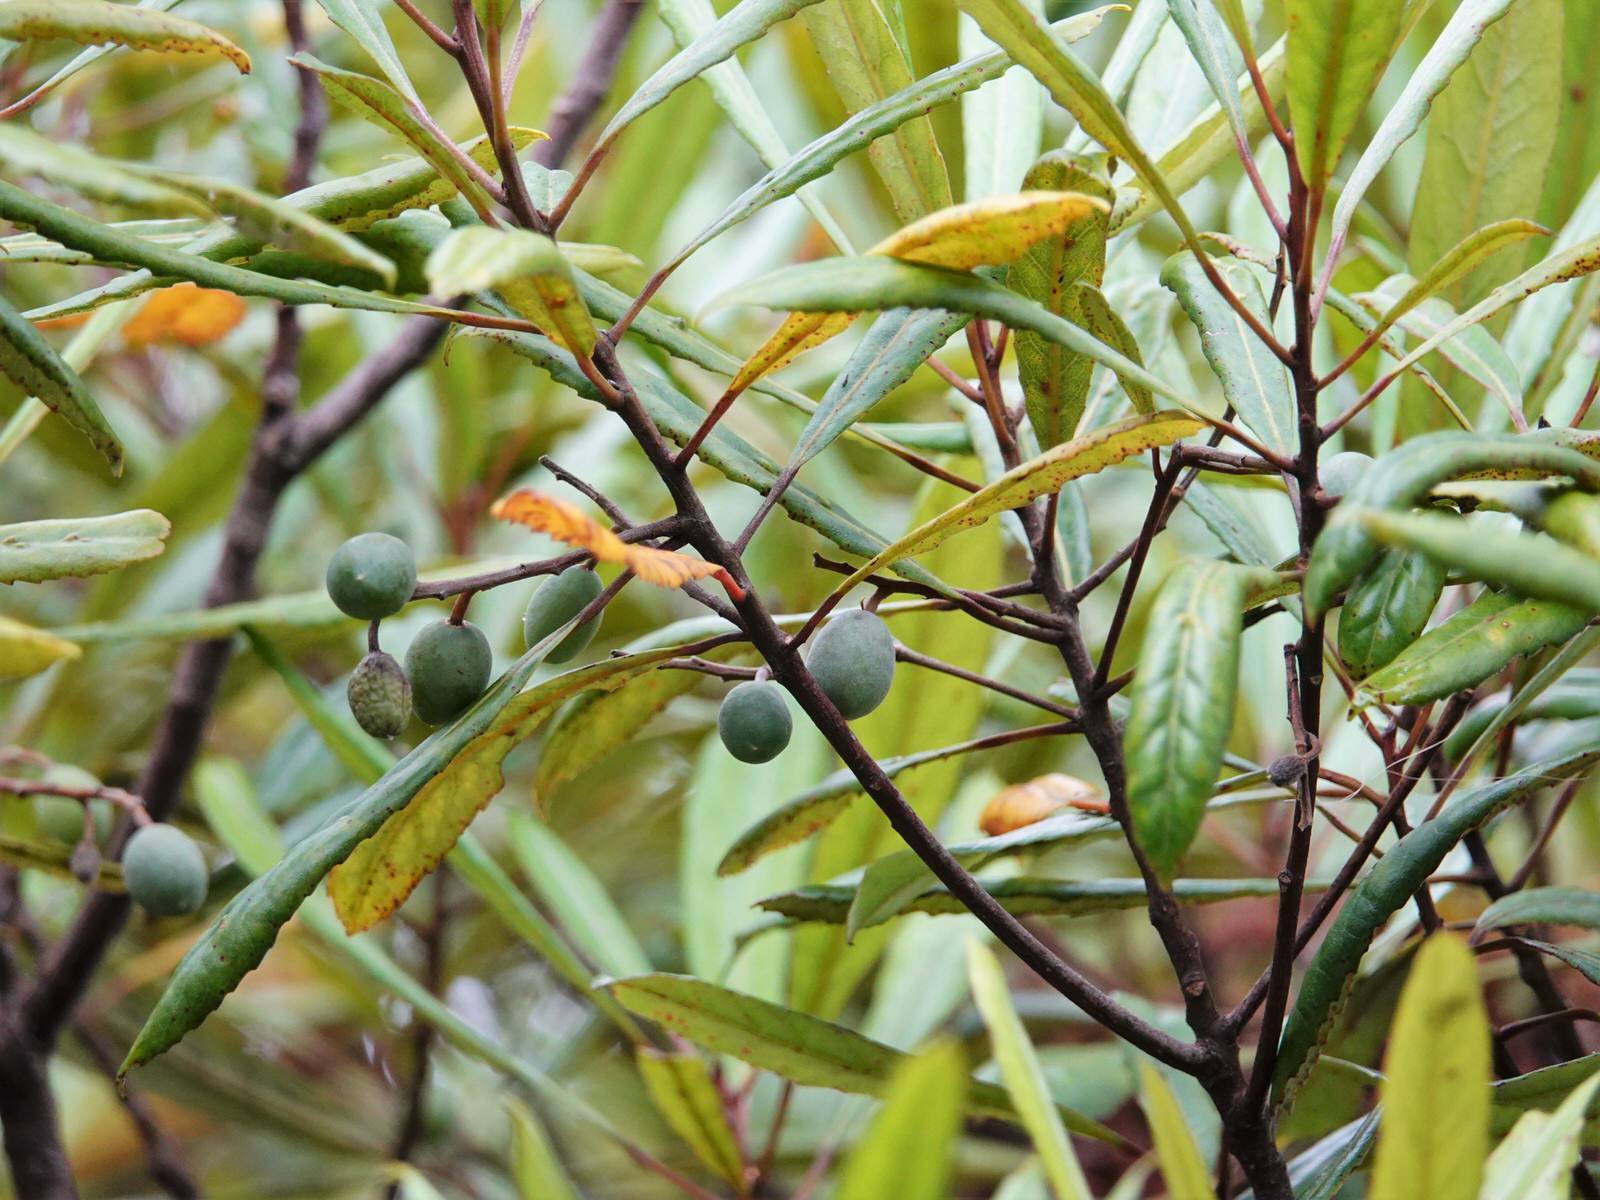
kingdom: Plantae
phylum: Tracheophyta
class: Magnoliopsida
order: Oxalidales
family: Elaeocarpaceae
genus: Elaeocarpus
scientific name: Elaeocarpus dentatus
